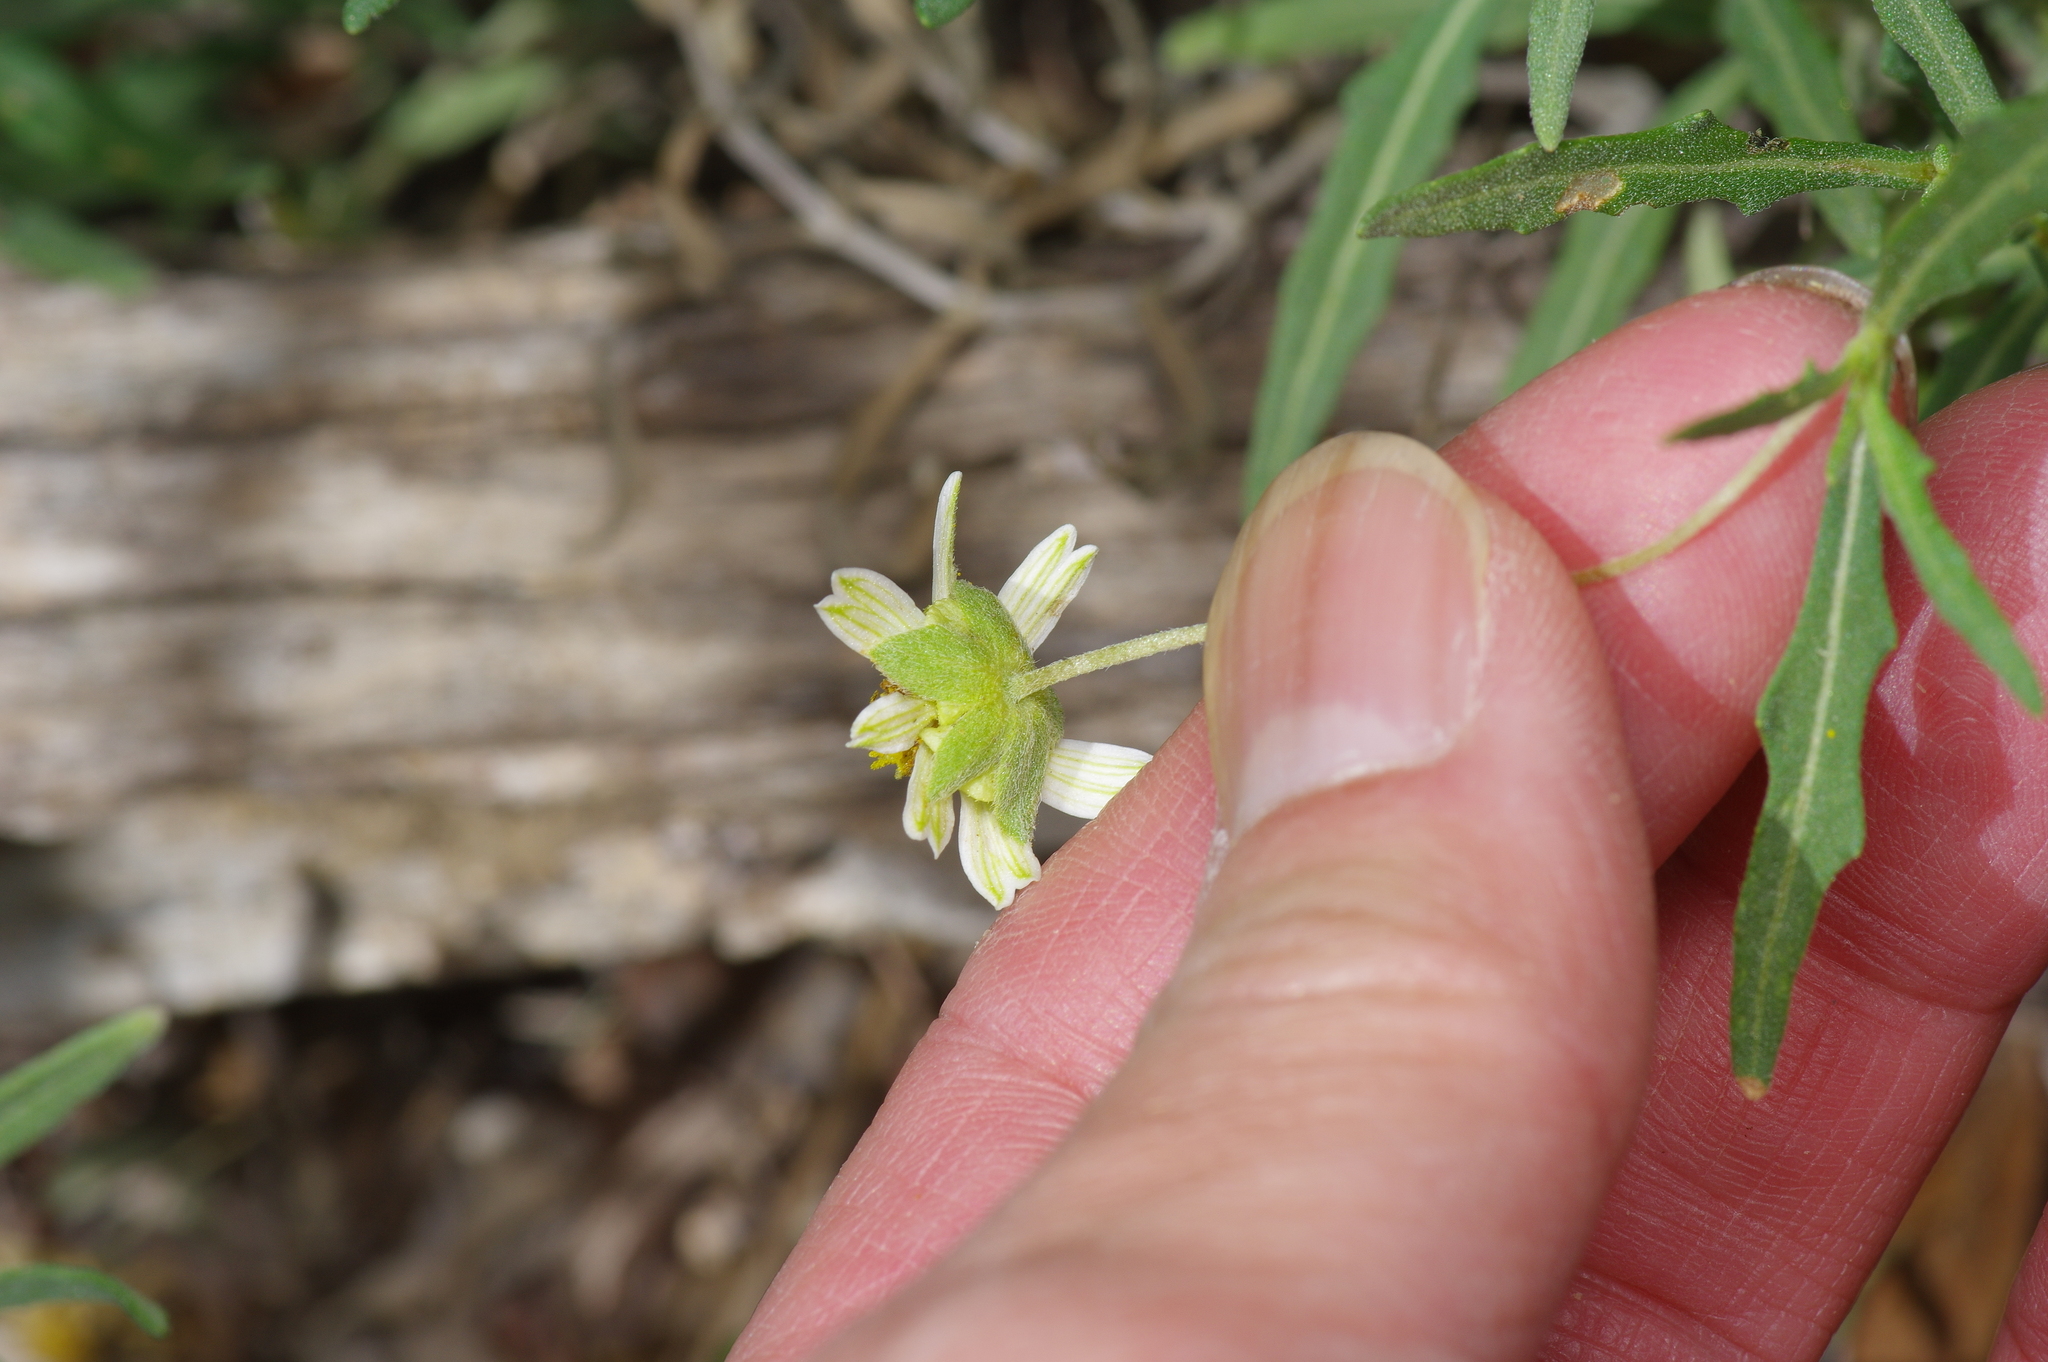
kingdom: Plantae
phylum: Tracheophyta
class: Magnoliopsida
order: Asterales
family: Asteraceae
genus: Melampodium
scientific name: Melampodium cinereum
